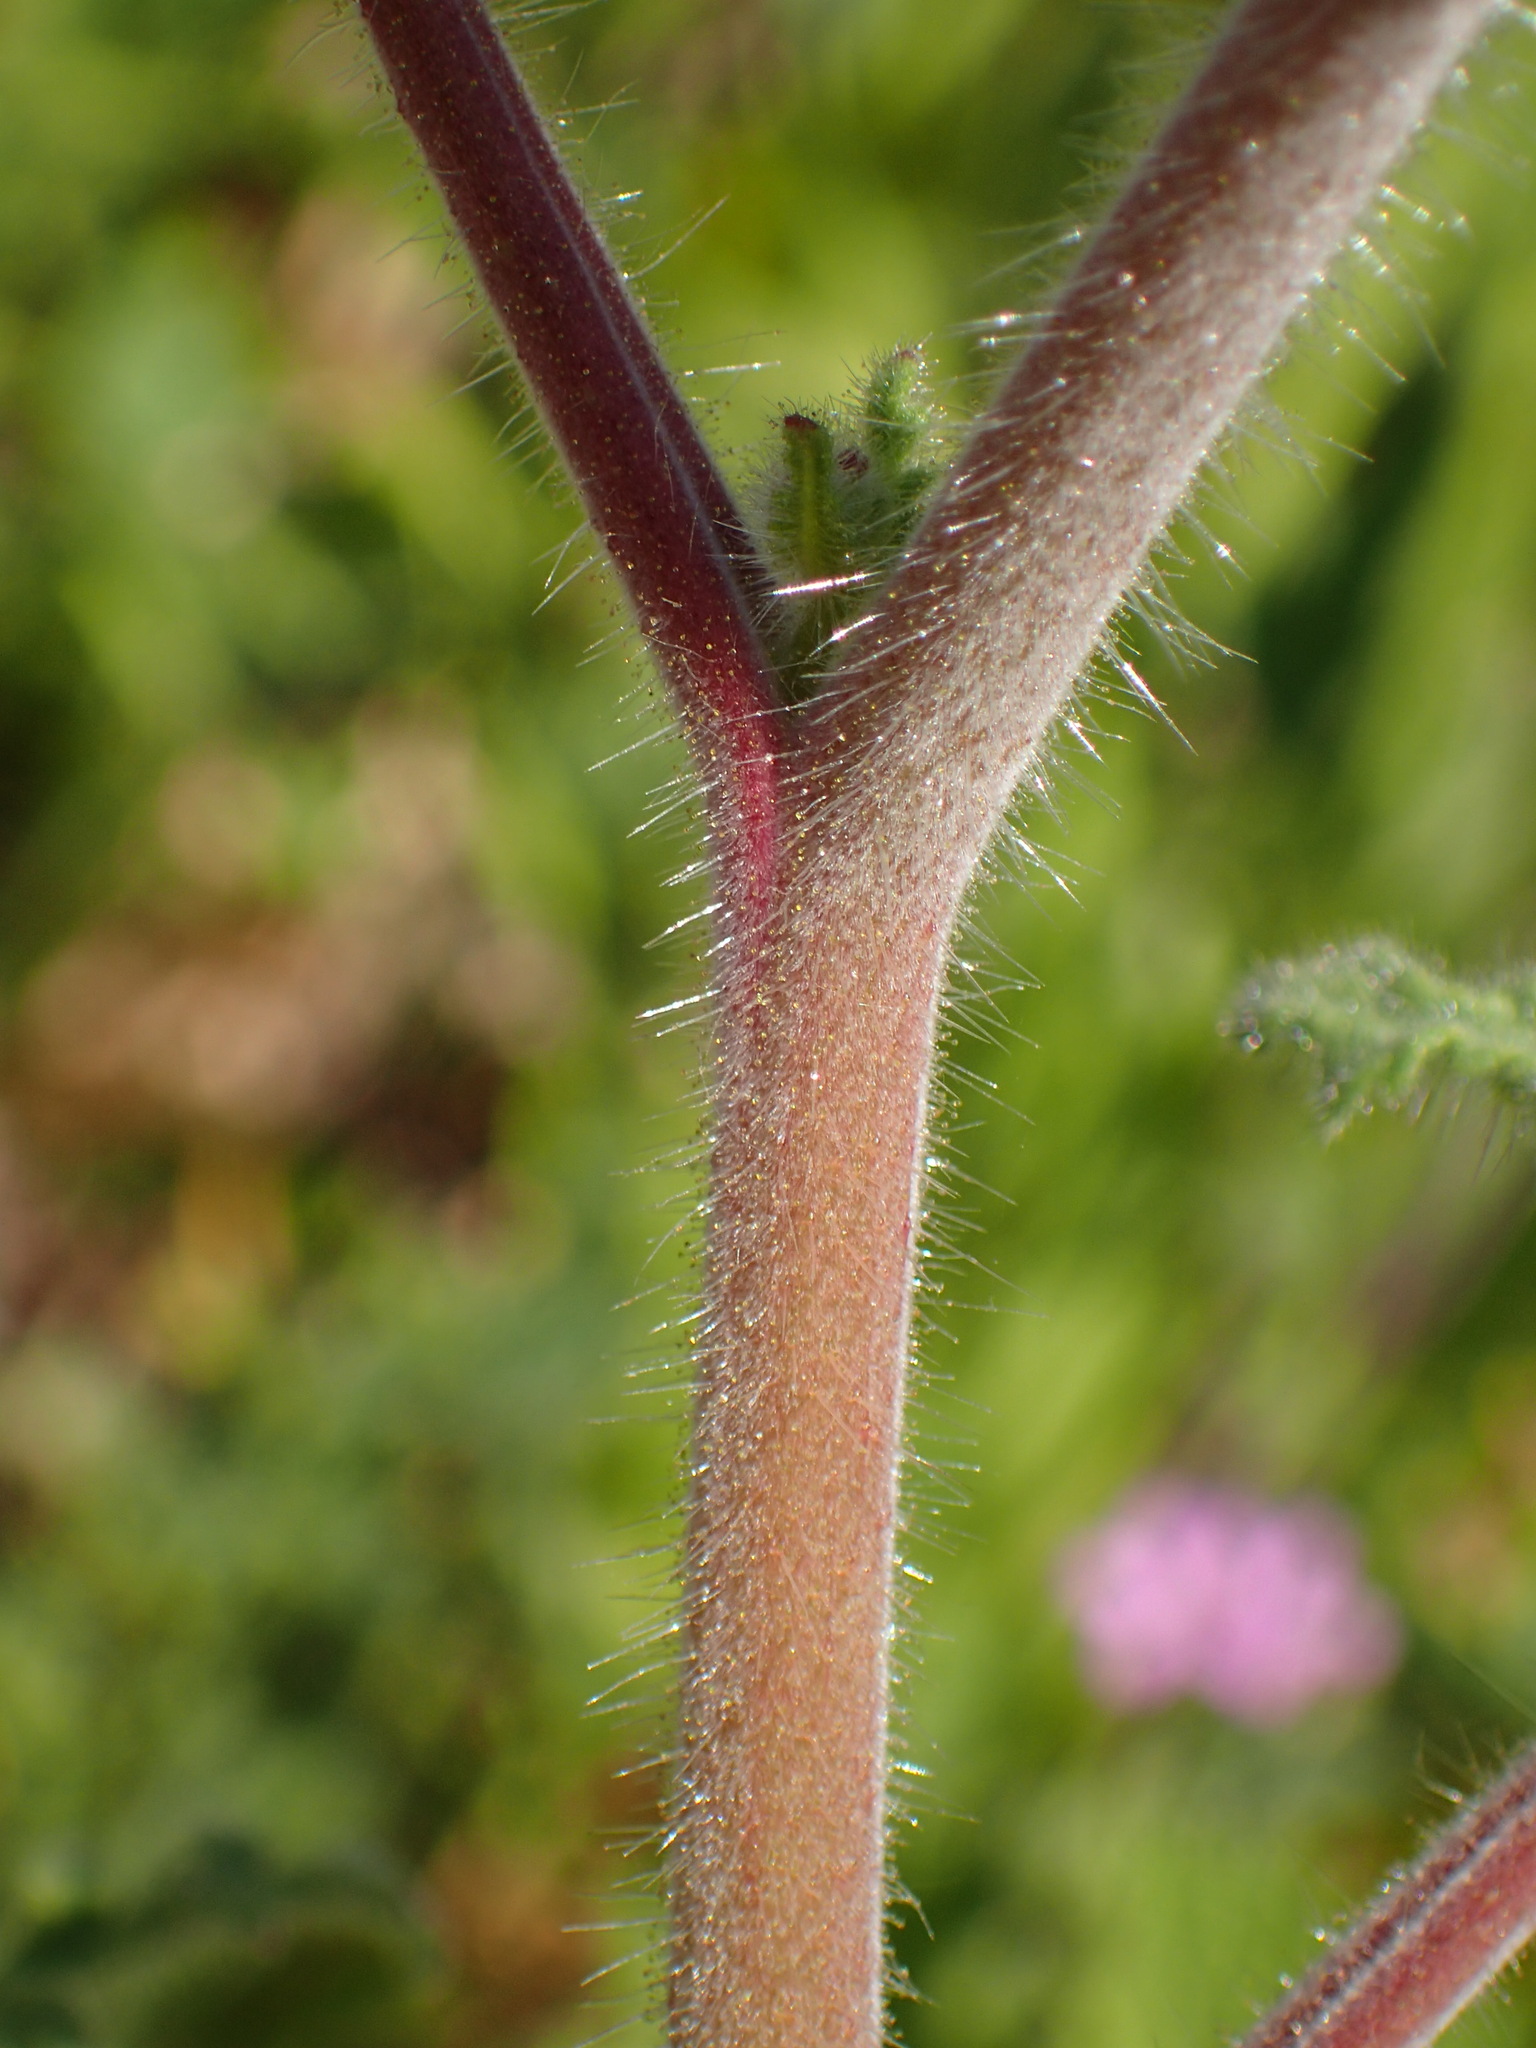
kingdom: Plantae
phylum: Tracheophyta
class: Magnoliopsida
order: Boraginales
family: Hydrophyllaceae
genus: Phacelia
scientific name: Phacelia hubbyi
